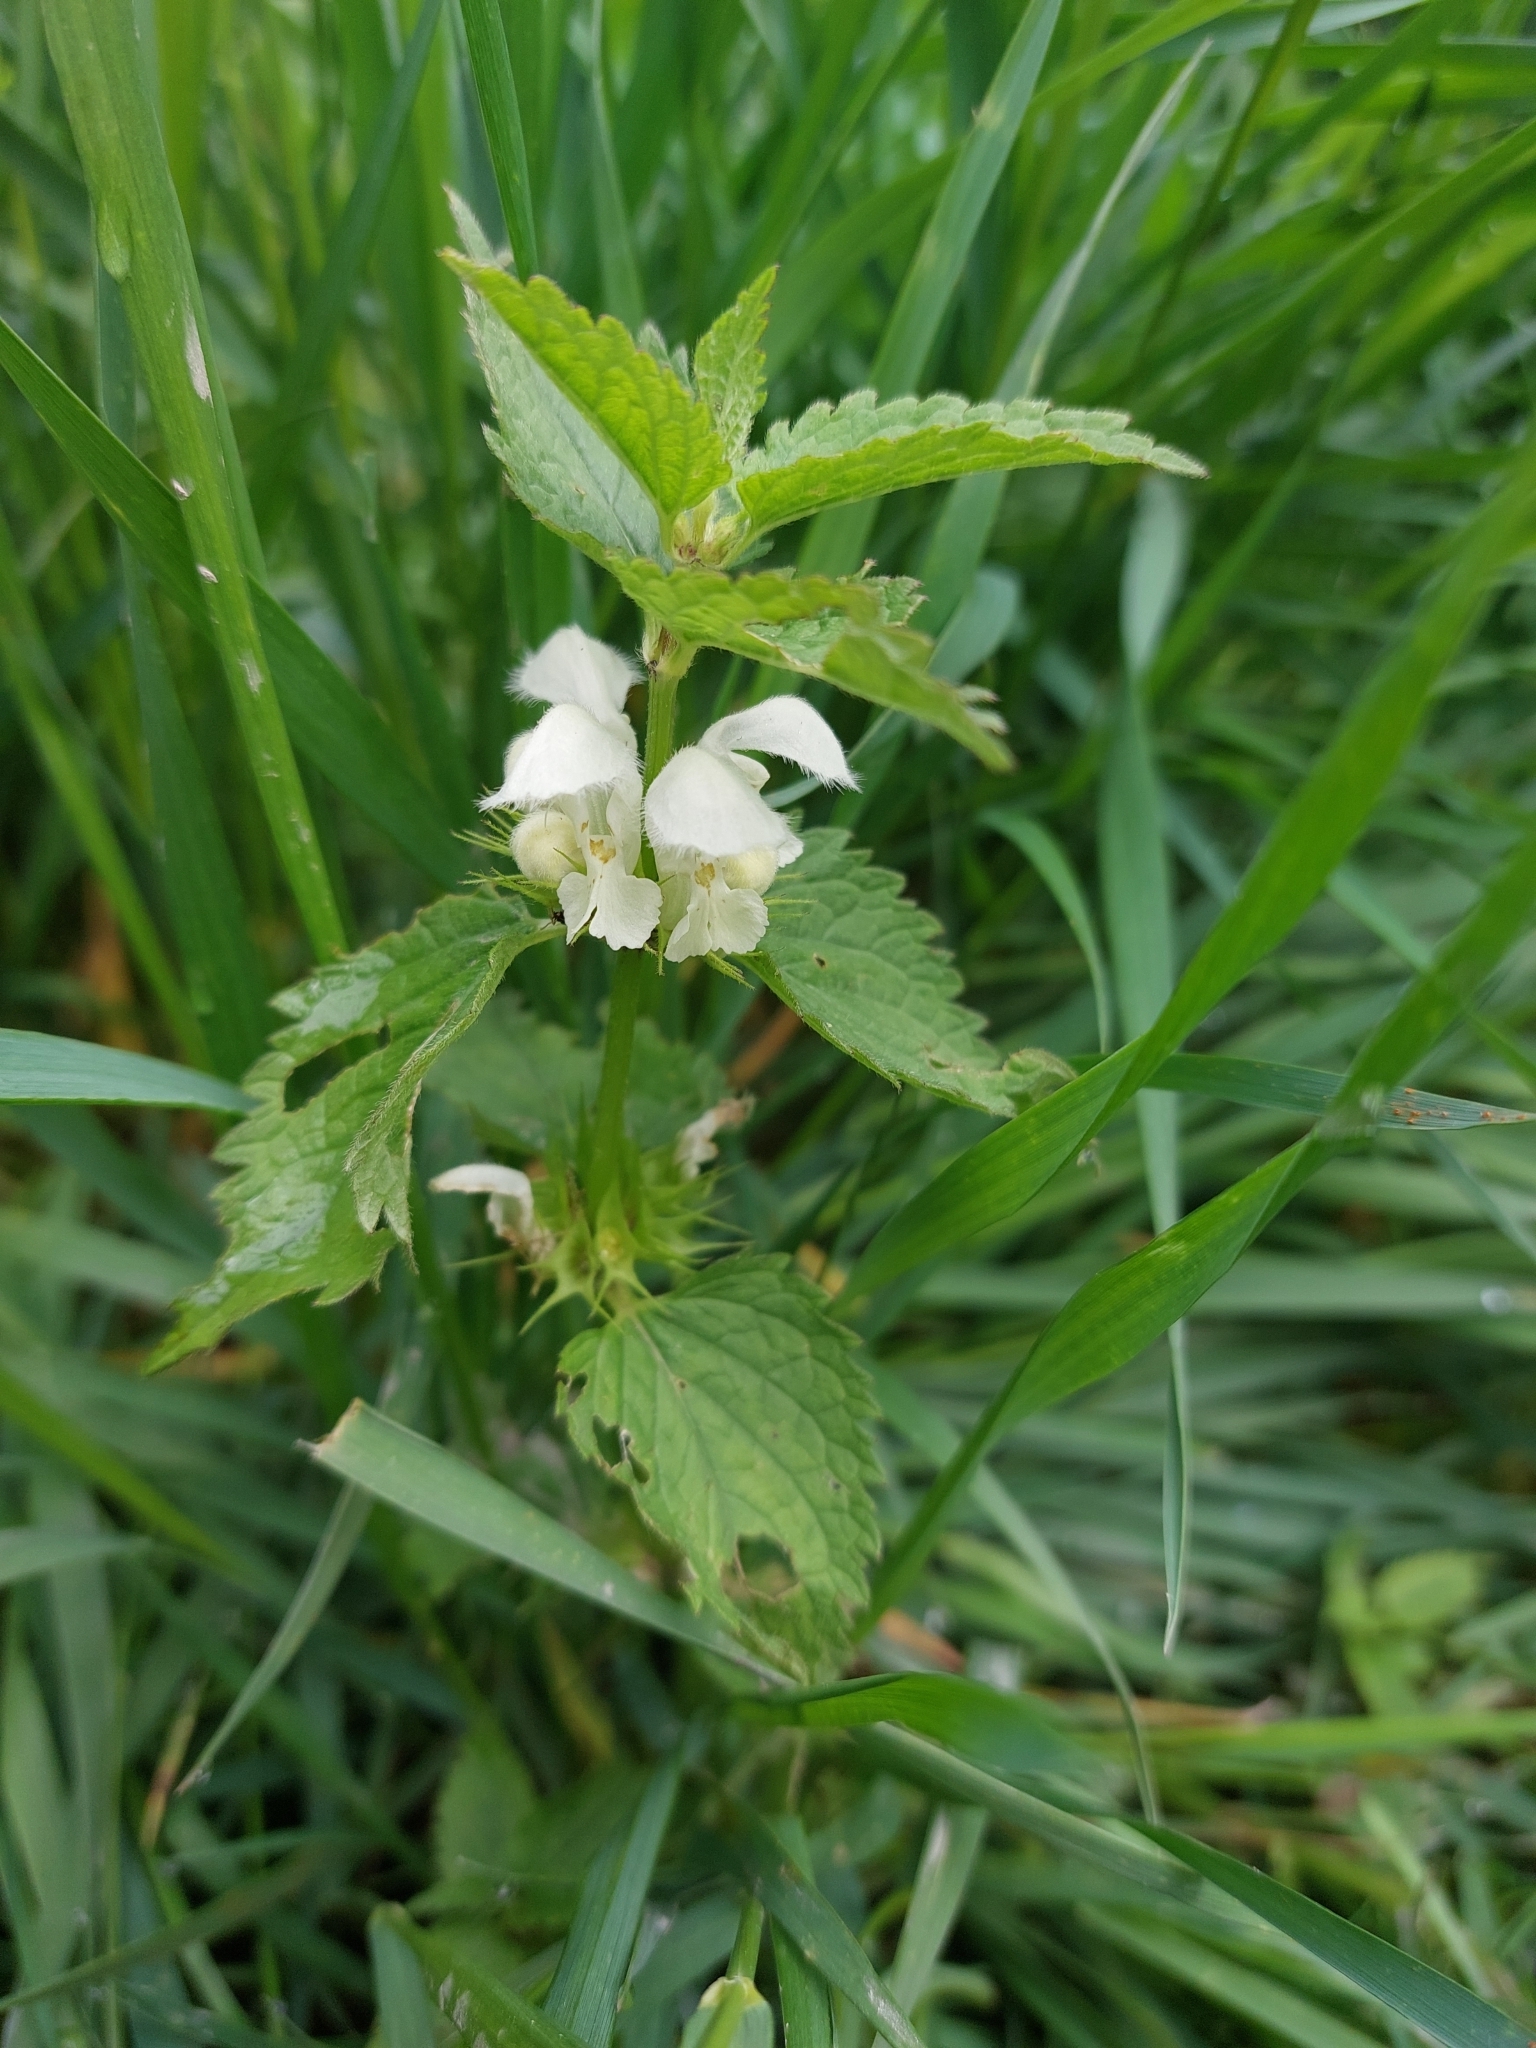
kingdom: Plantae
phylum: Tracheophyta
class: Magnoliopsida
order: Lamiales
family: Lamiaceae
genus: Lamium
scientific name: Lamium album
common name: White dead-nettle
